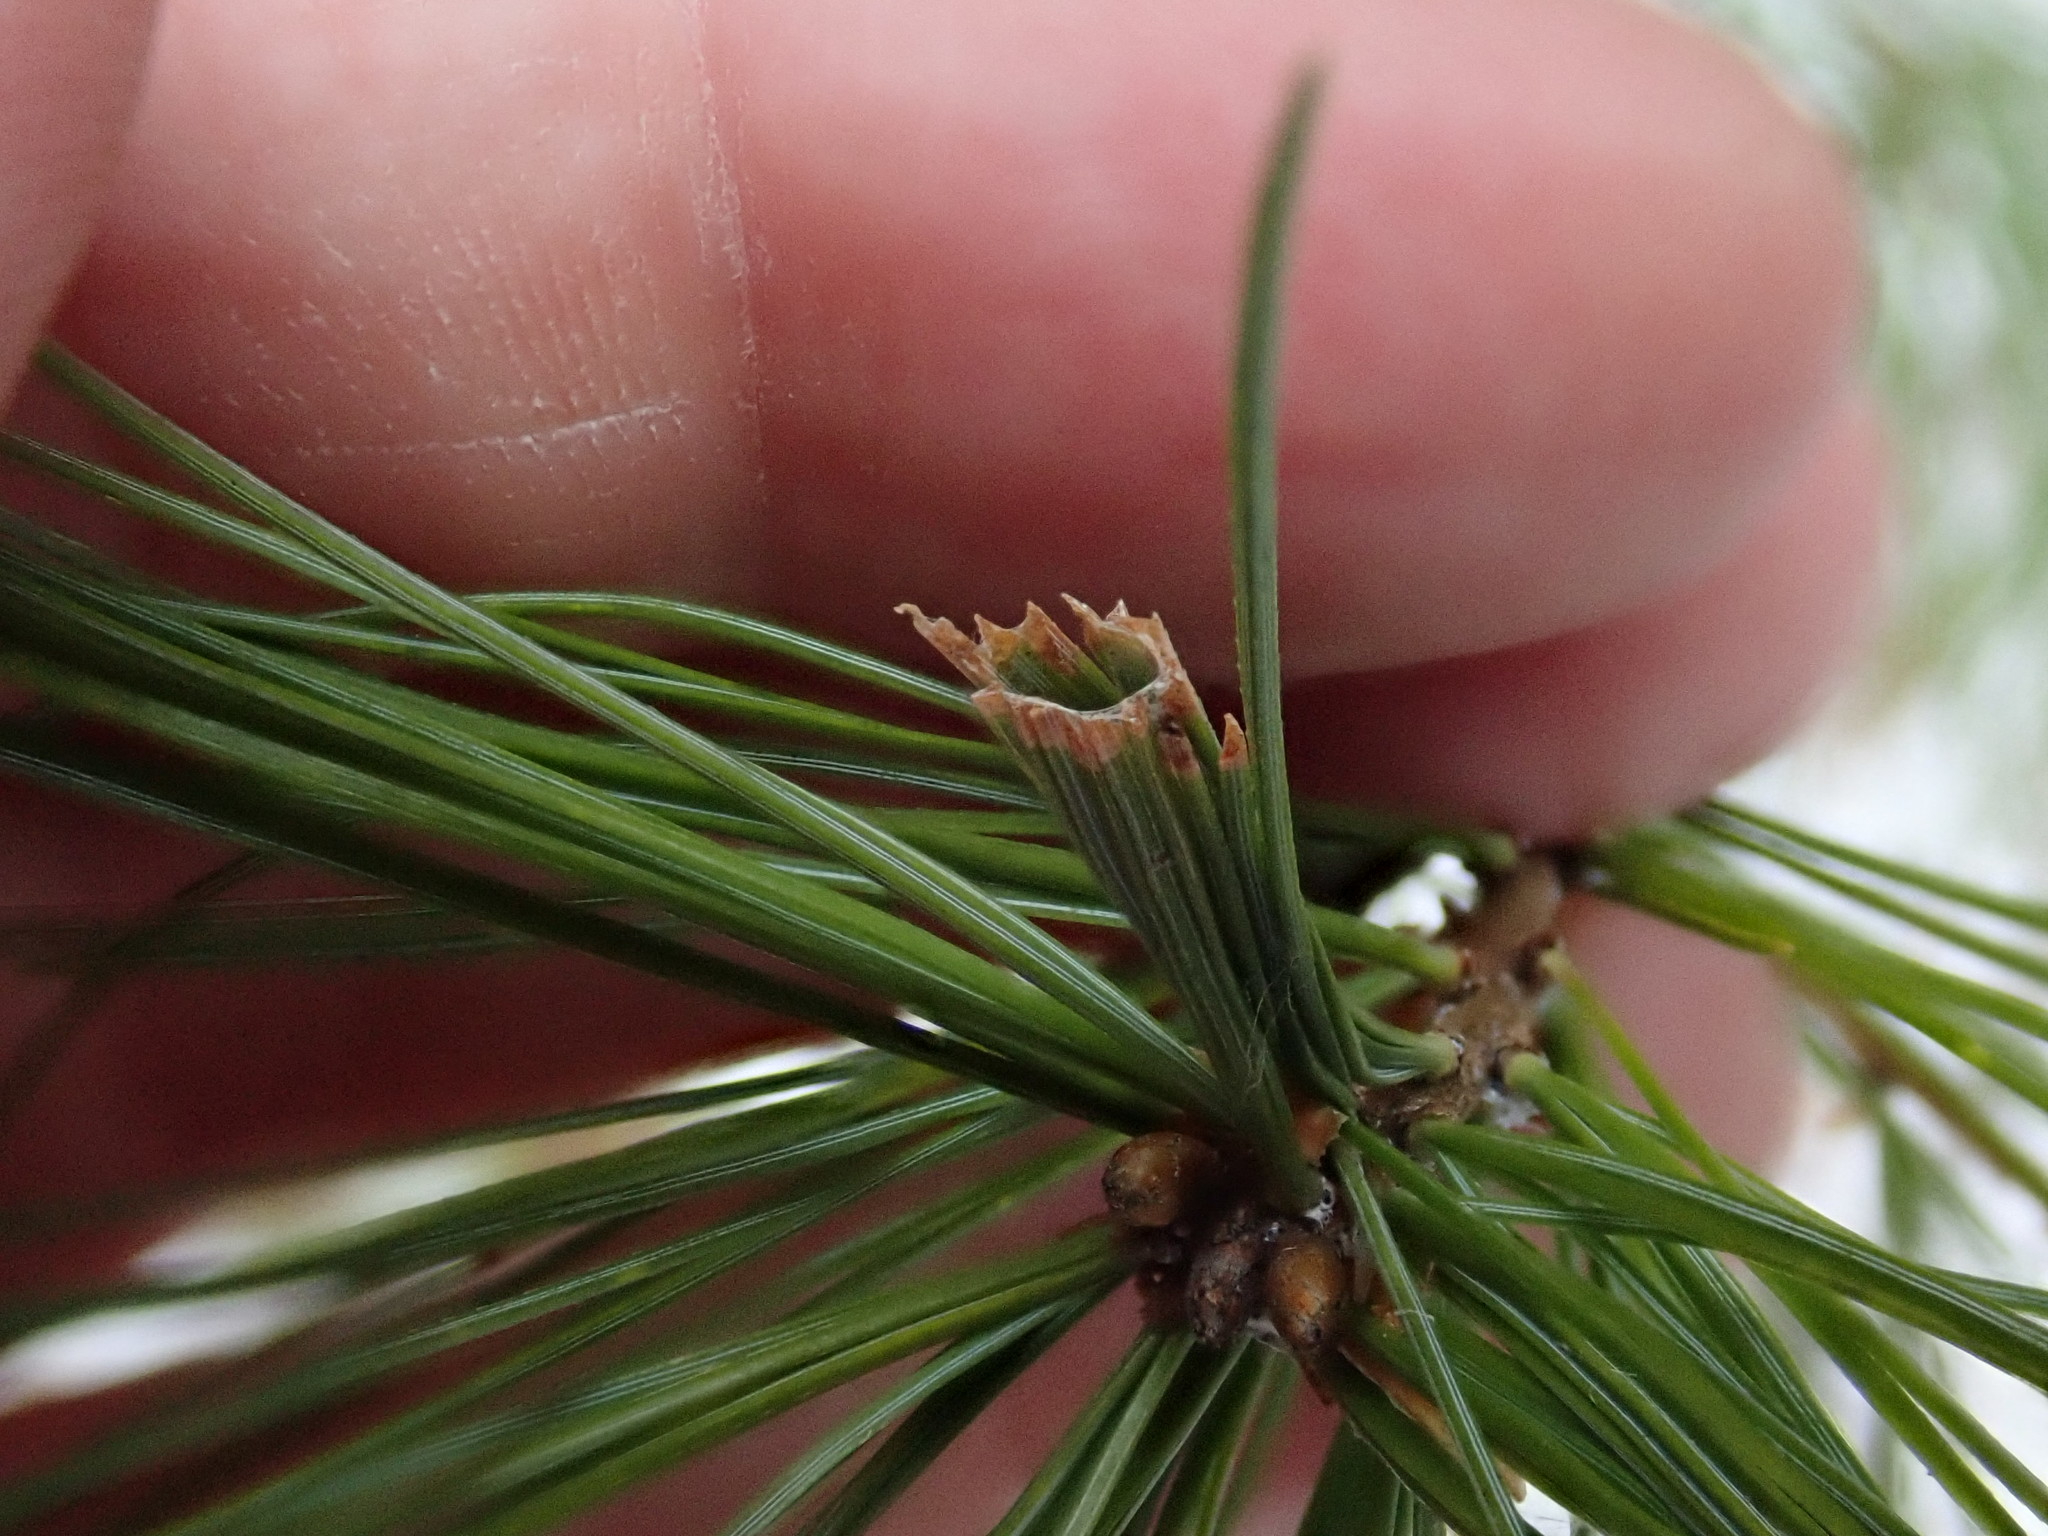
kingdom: Animalia
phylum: Arthropoda
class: Insecta
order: Lepidoptera
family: Tortricidae
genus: Argyrotaenia
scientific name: Argyrotaenia pinatubana
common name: Pine tube moth
